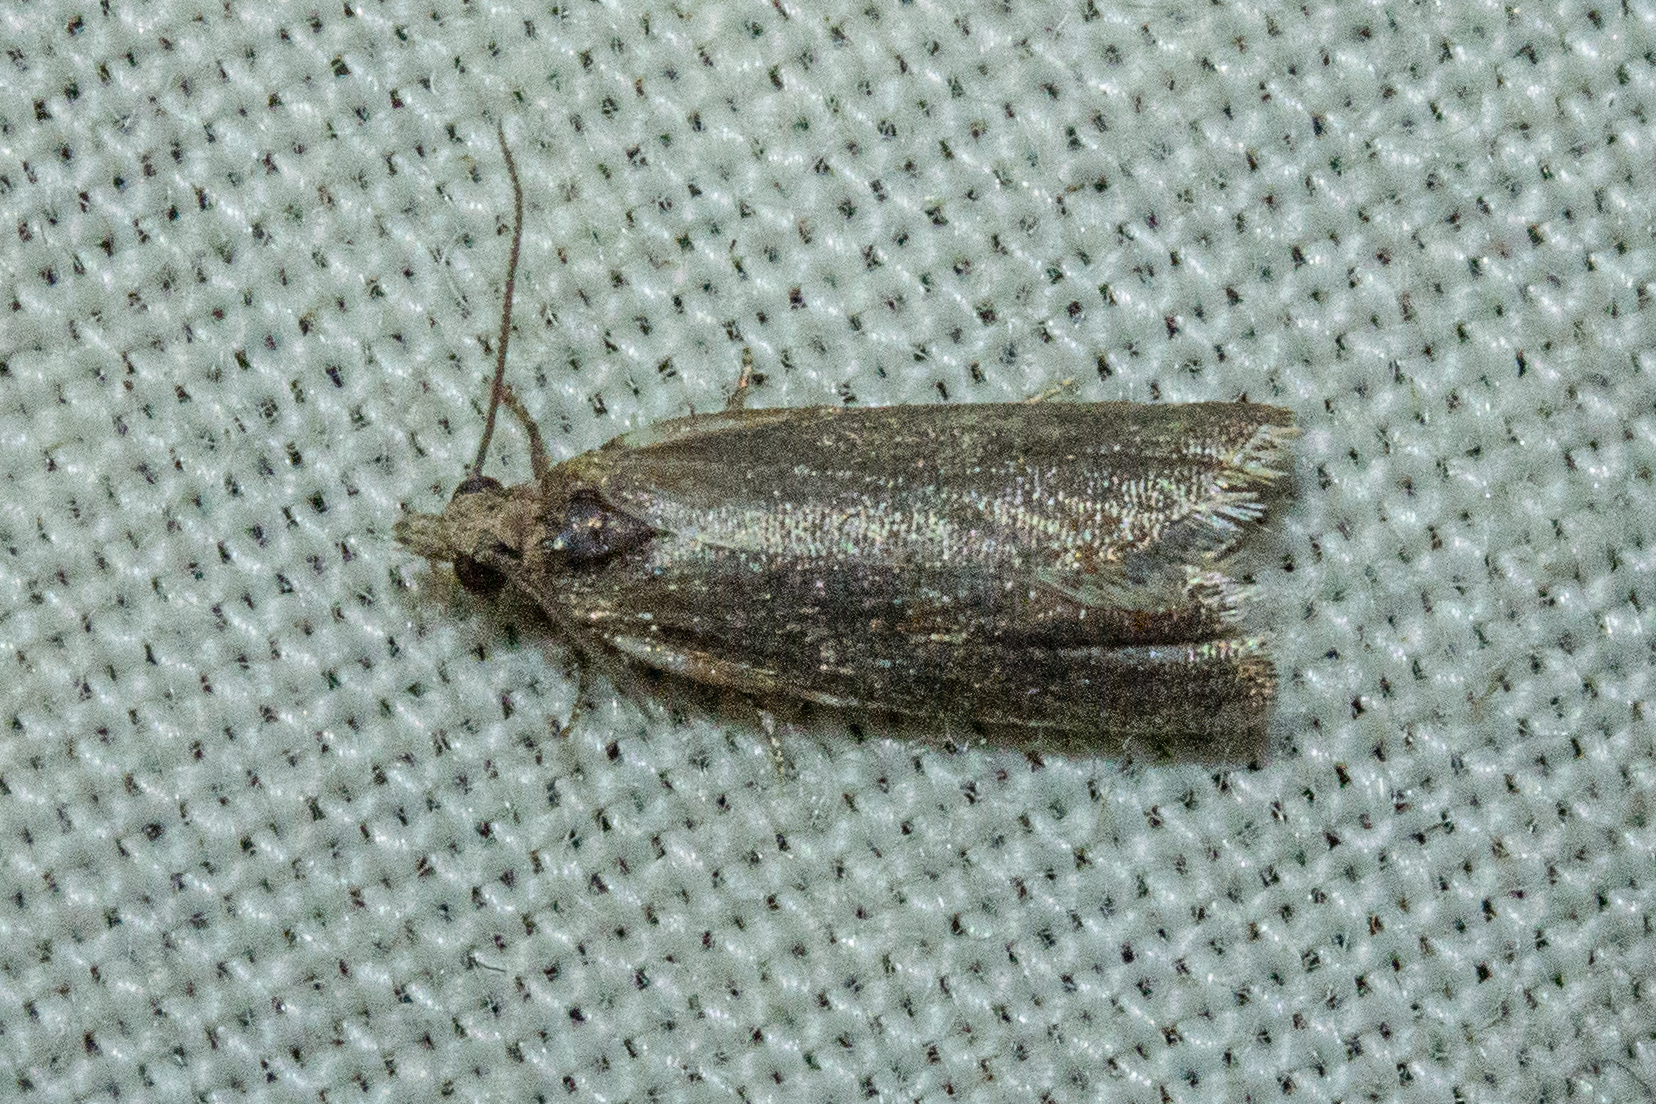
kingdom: Animalia
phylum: Arthropoda
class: Insecta
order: Lepidoptera
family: Tortricidae
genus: Capua
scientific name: Capua semiferana
